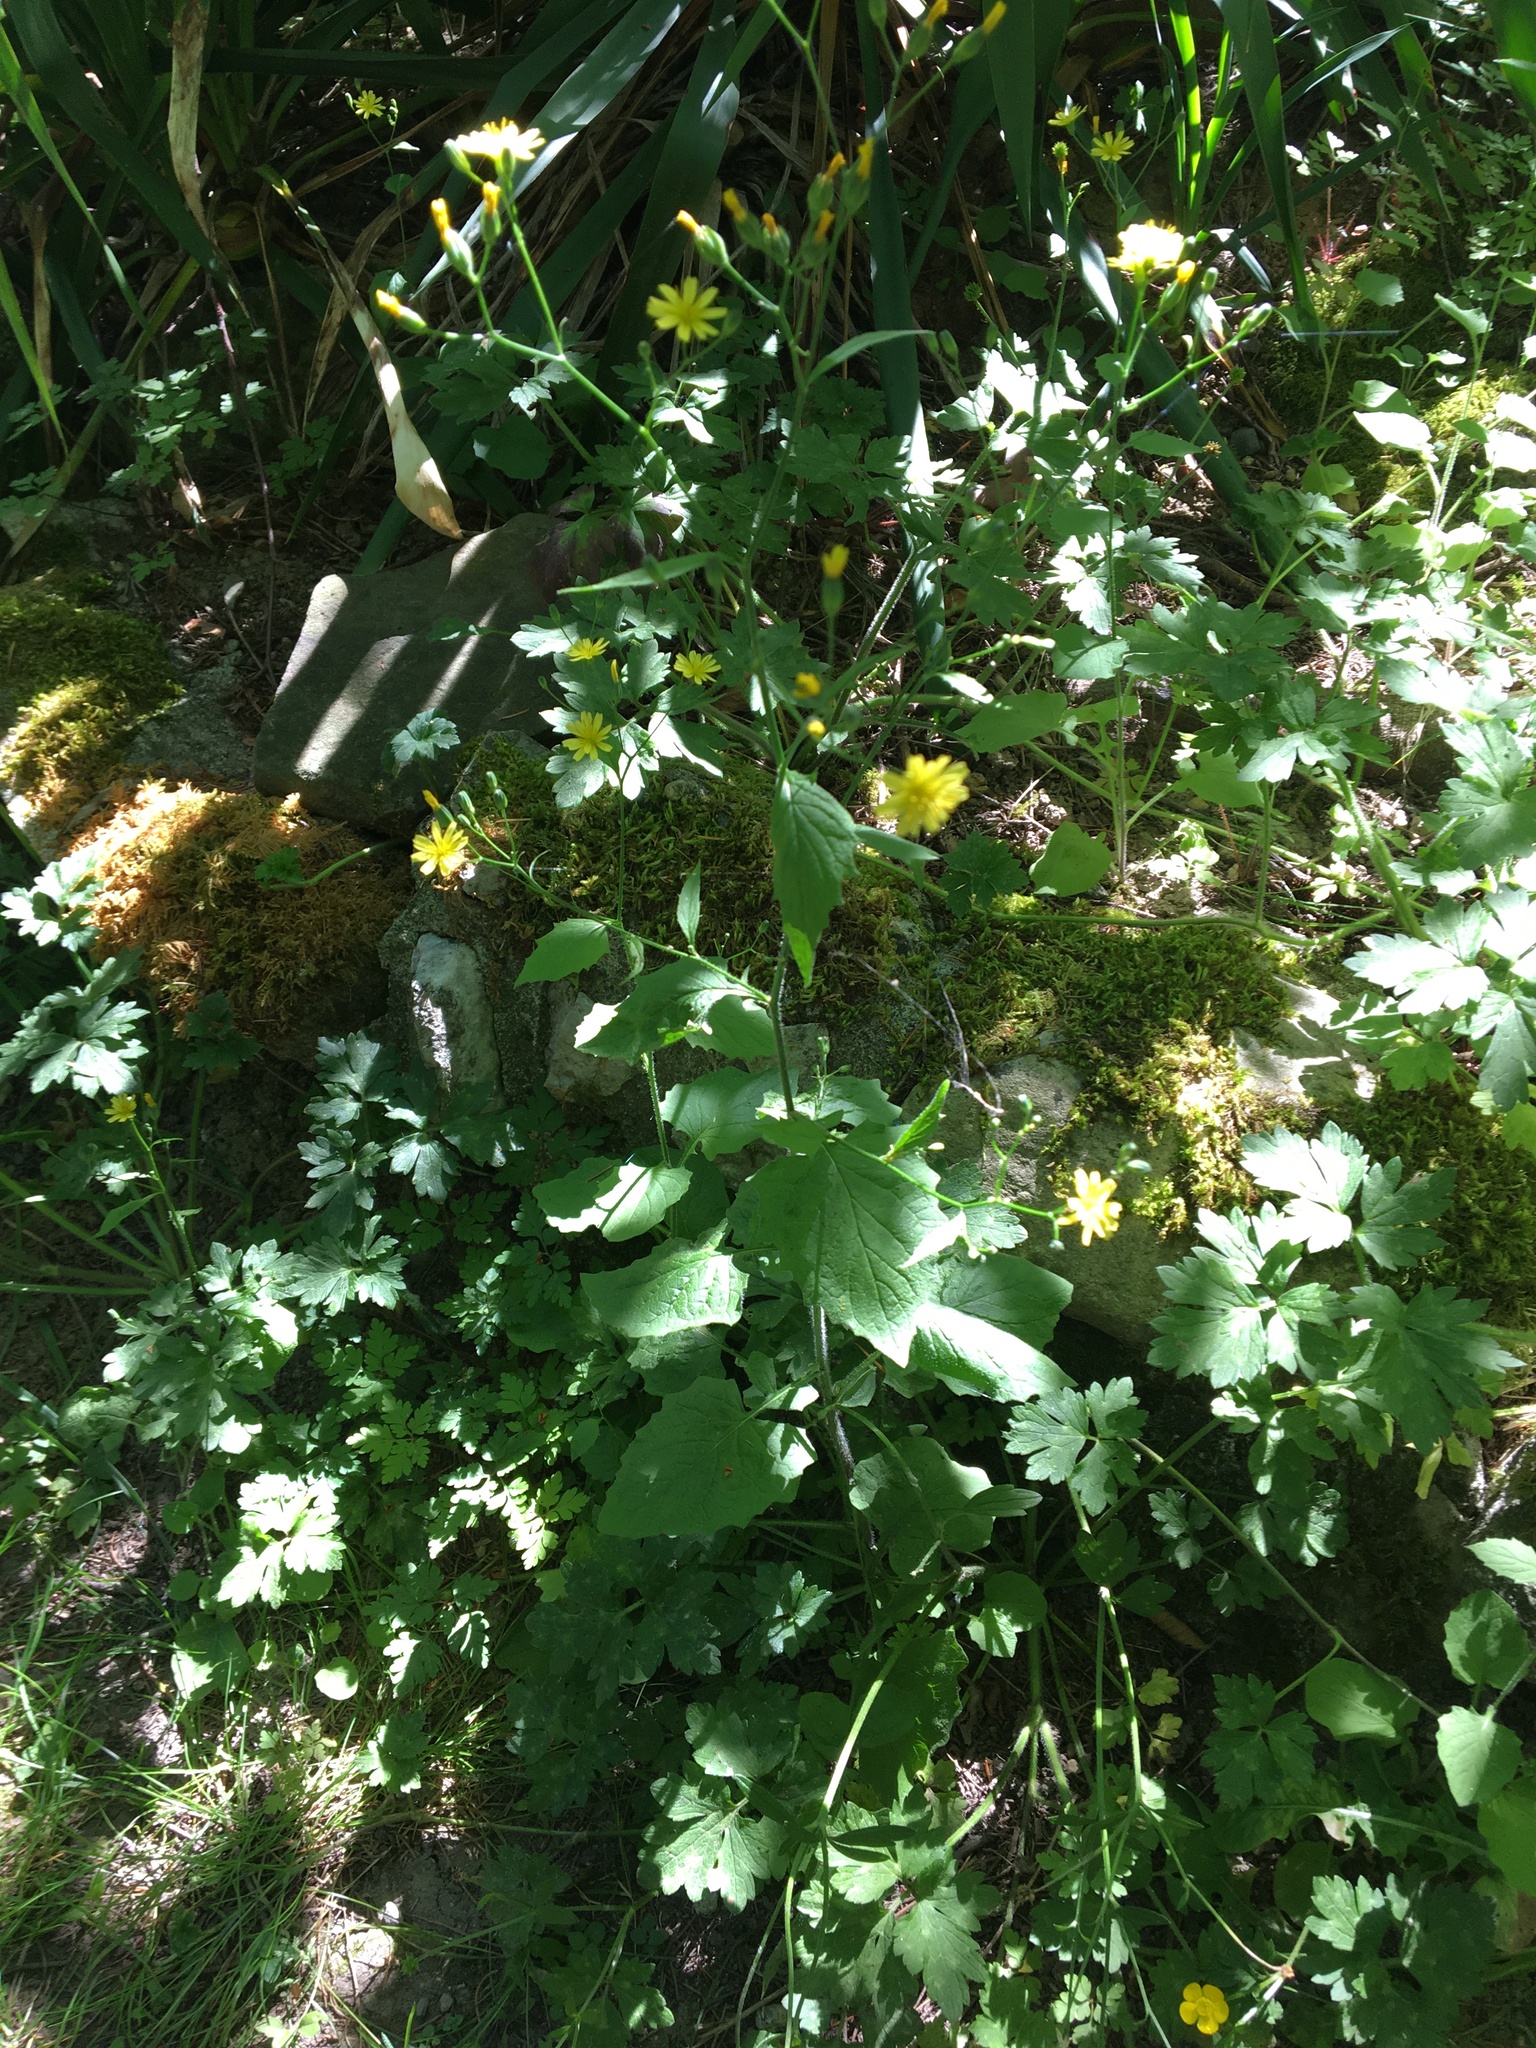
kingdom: Plantae
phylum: Tracheophyta
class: Magnoliopsida
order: Asterales
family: Asteraceae
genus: Lapsana
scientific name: Lapsana communis
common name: Nipplewort
